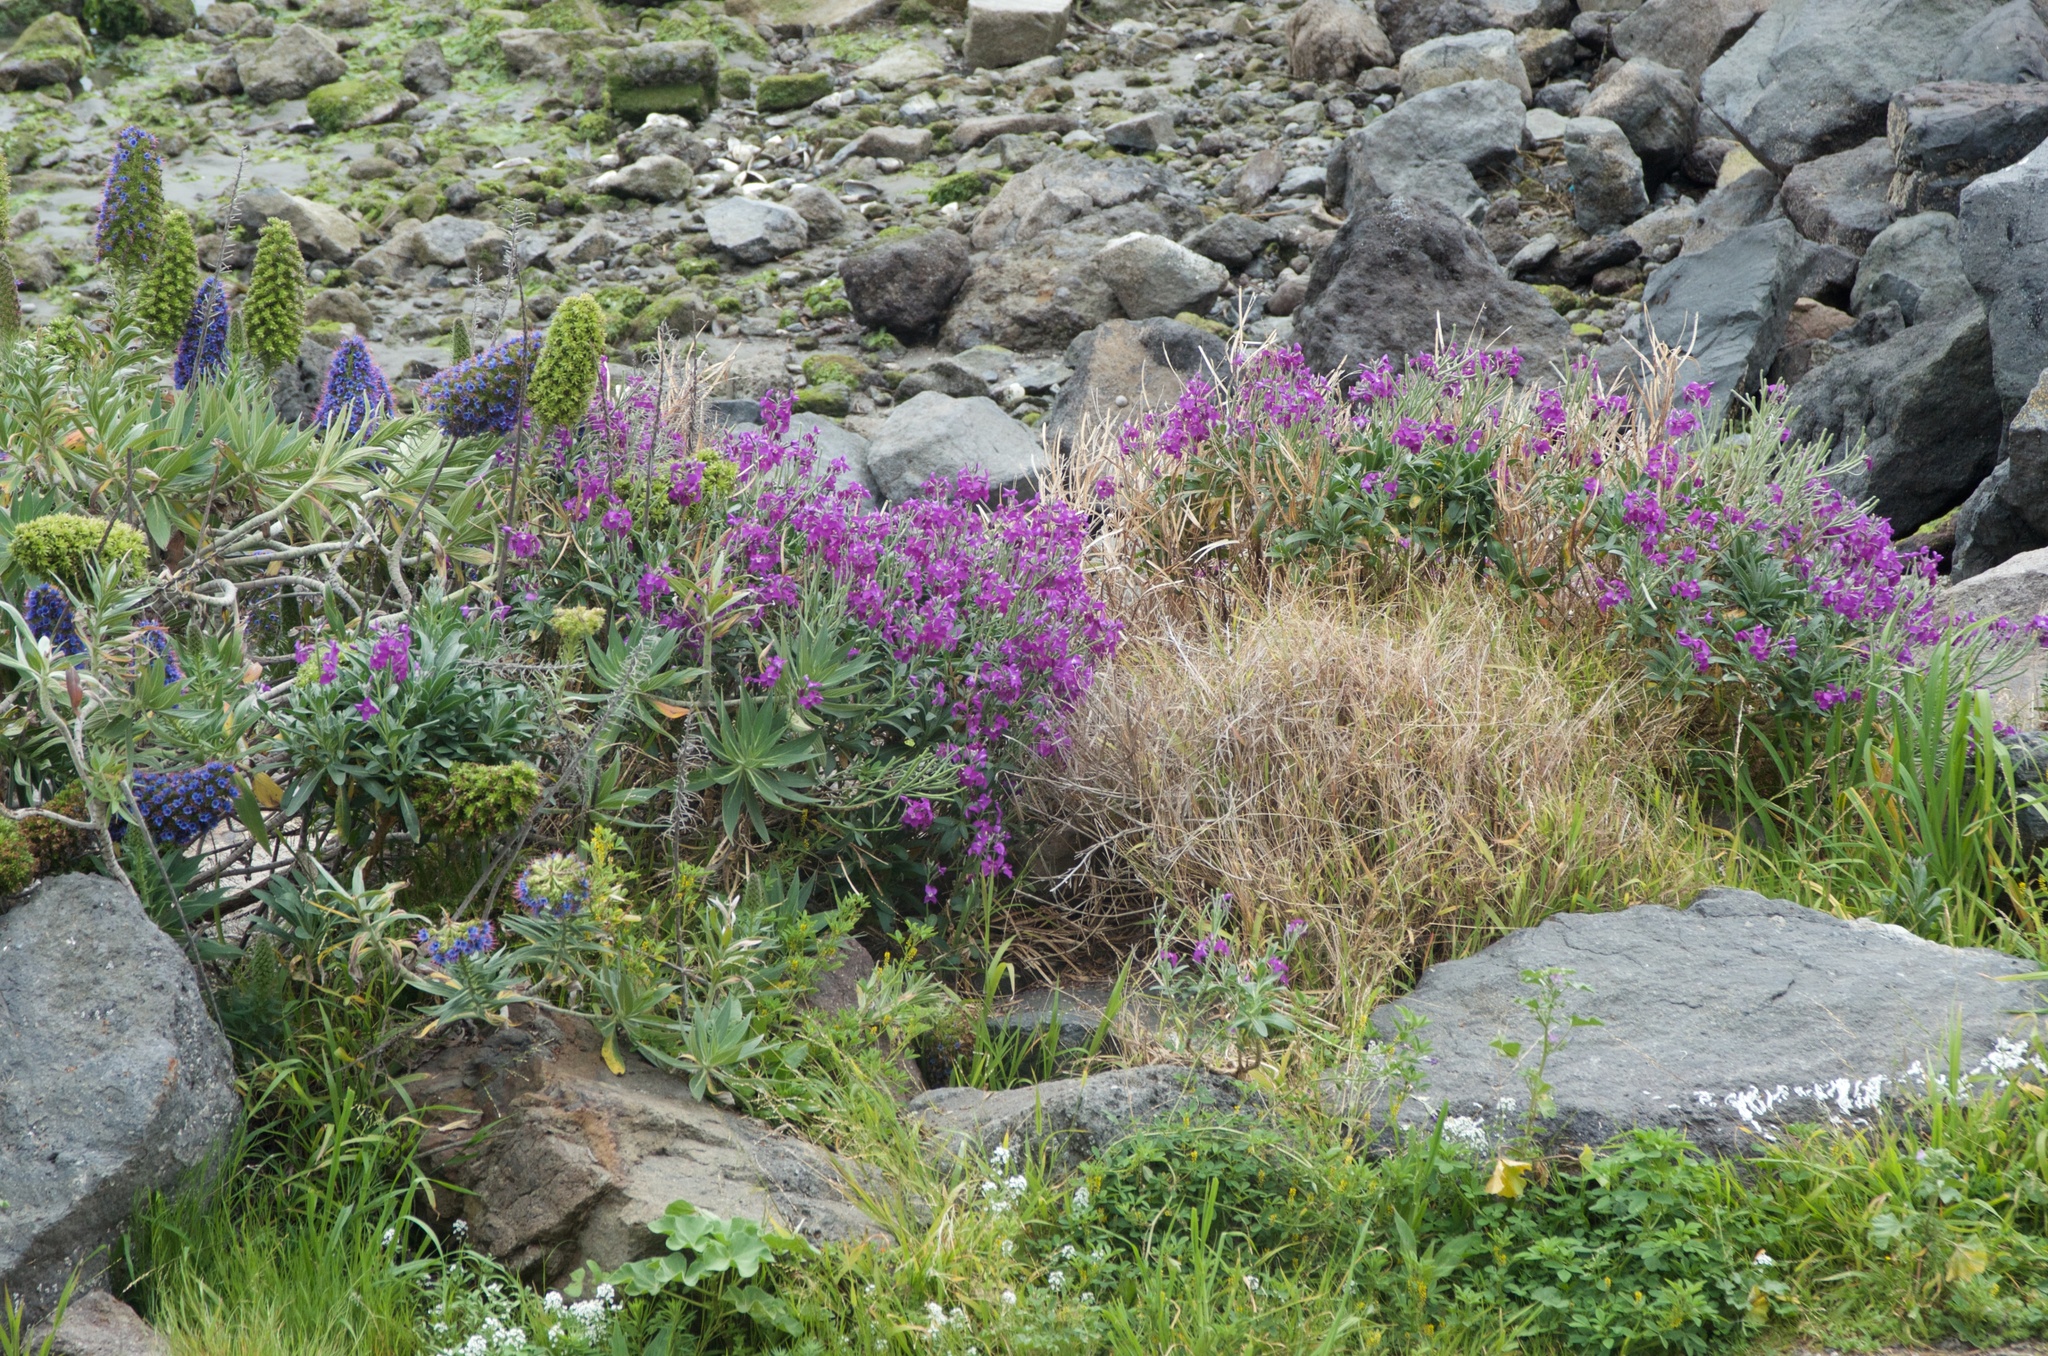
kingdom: Plantae
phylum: Tracheophyta
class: Magnoliopsida
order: Brassicales
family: Brassicaceae
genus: Matthiola
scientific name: Matthiola incana
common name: Hoary stock
